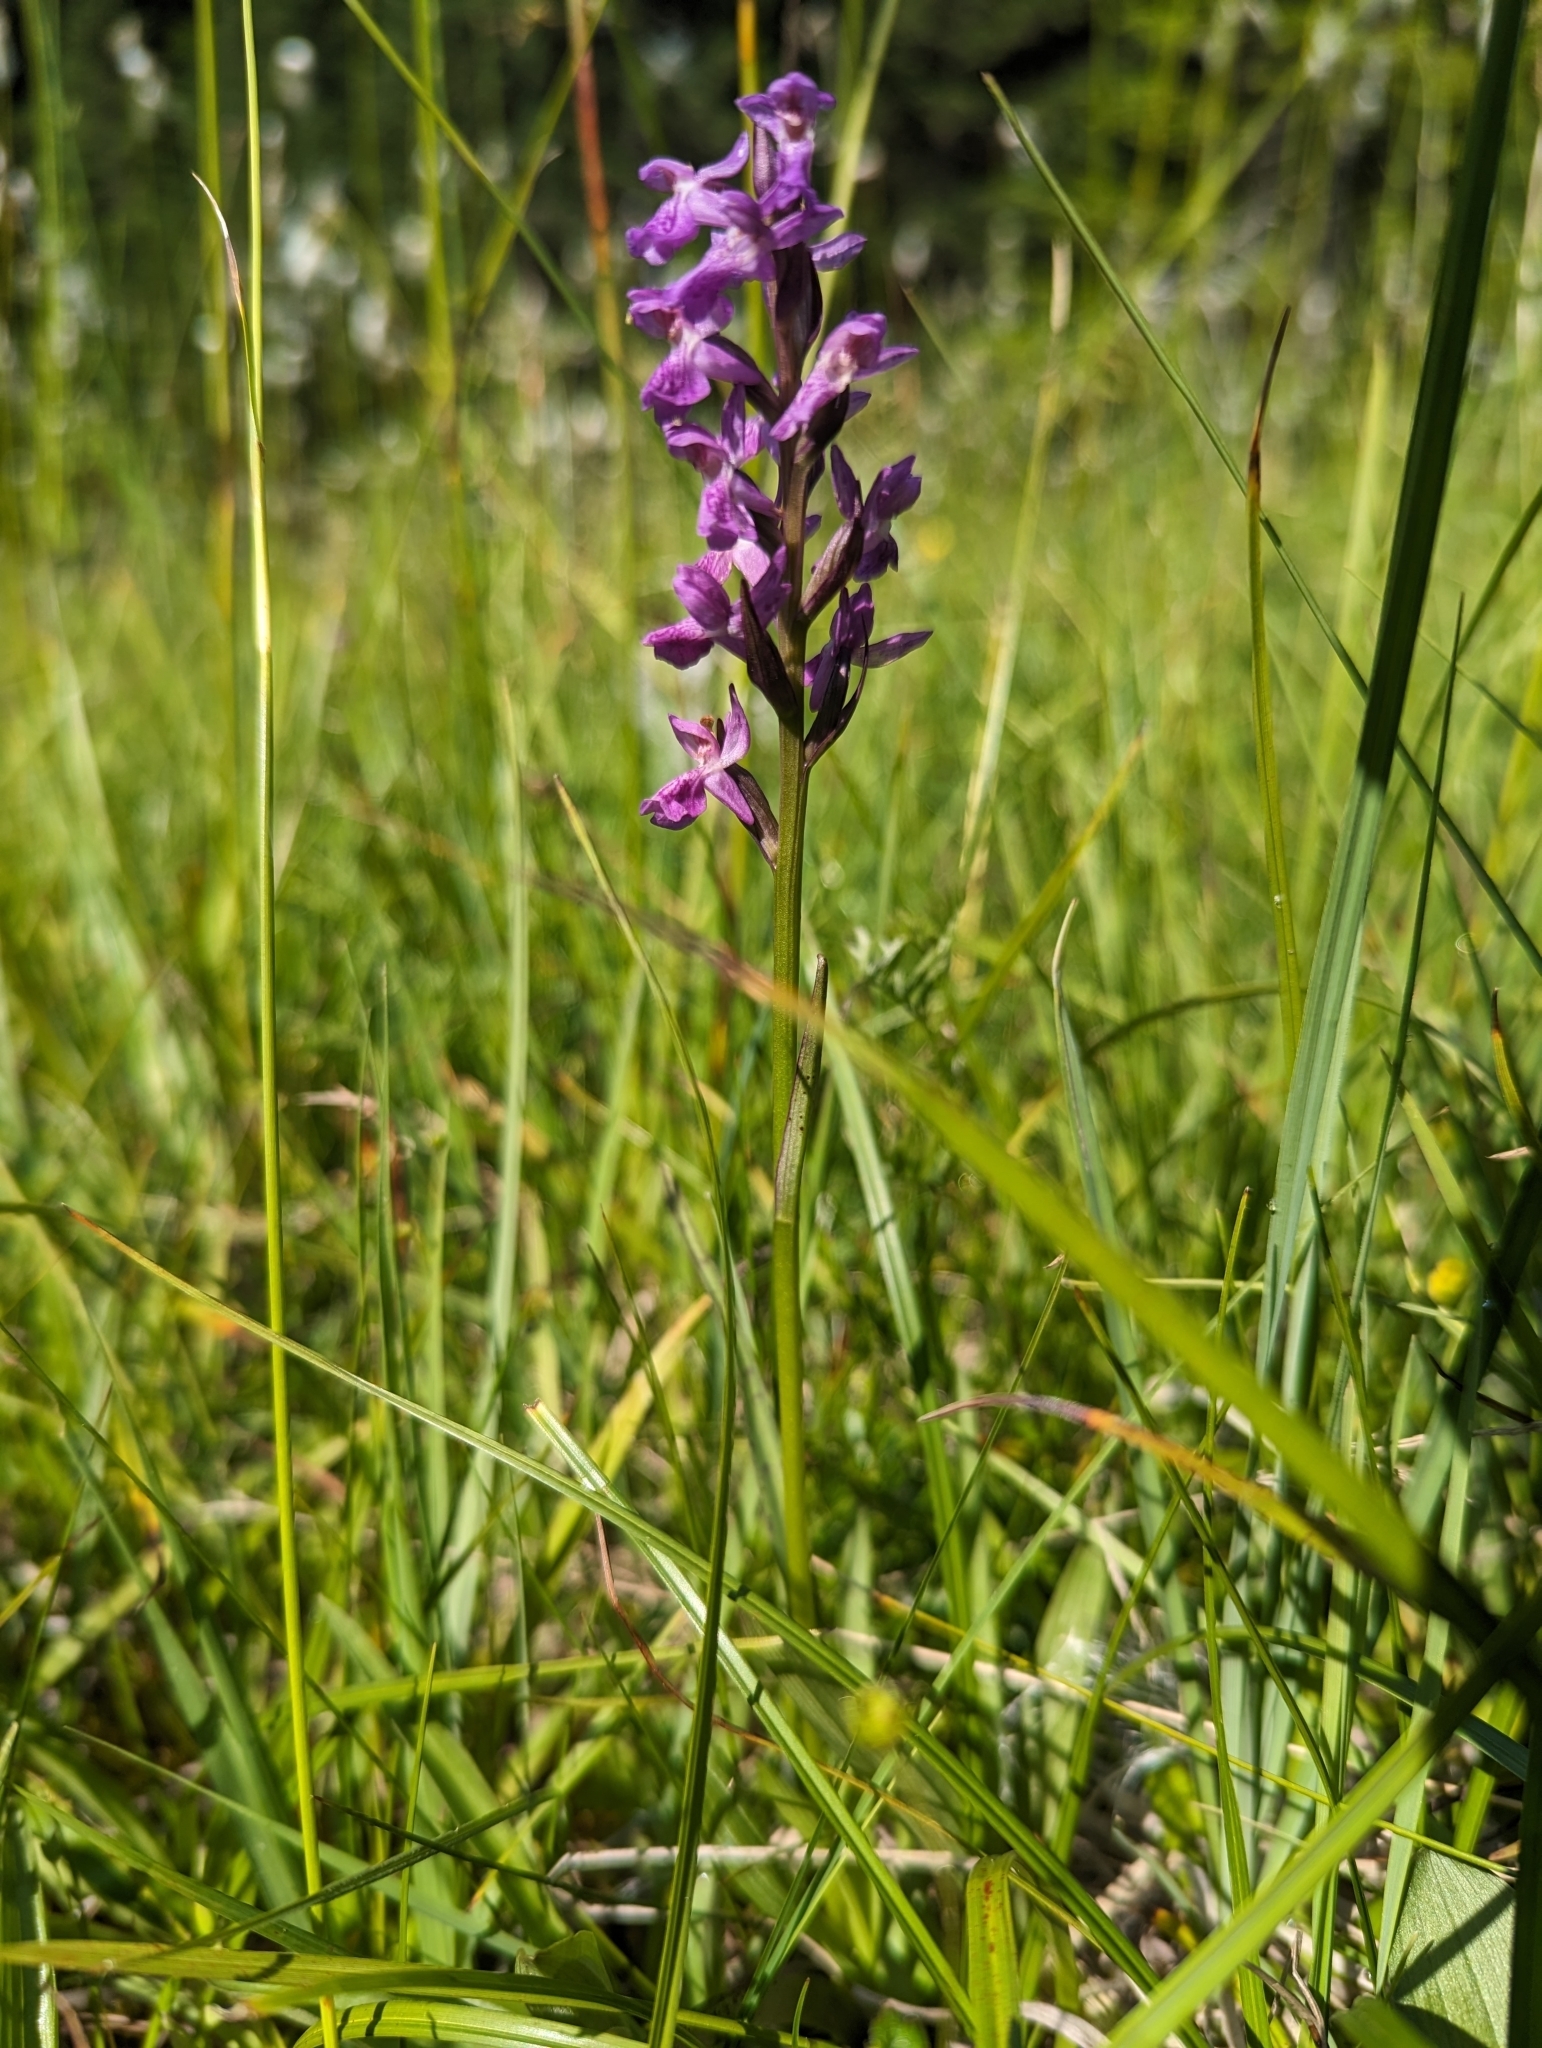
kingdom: Plantae
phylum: Tracheophyta
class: Liliopsida
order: Asparagales
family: Orchidaceae
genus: Dactylorhiza
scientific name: Dactylorhiza majalis
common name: Marsh orchid
